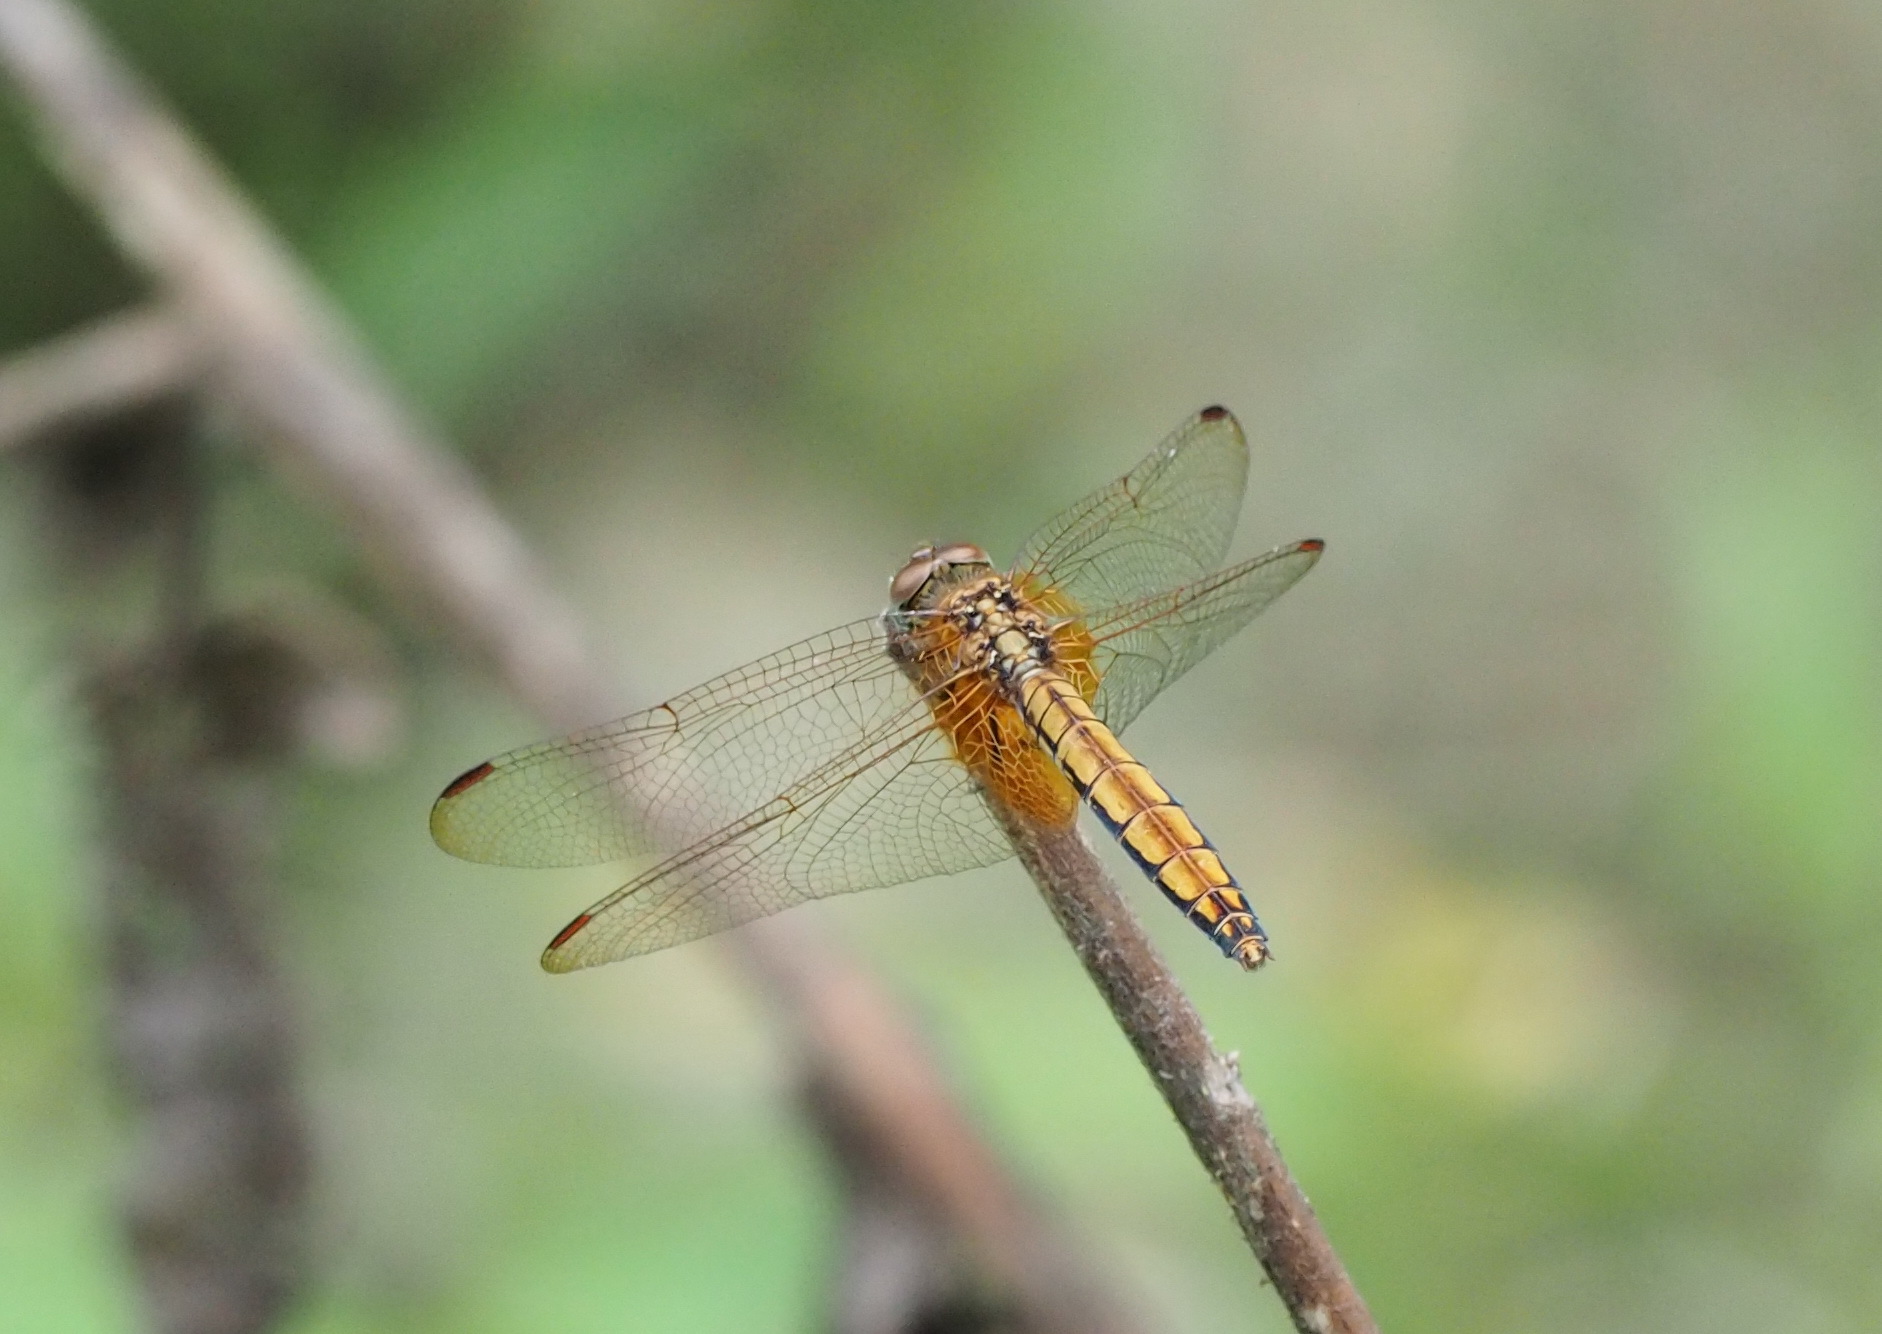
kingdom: Animalia
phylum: Arthropoda
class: Insecta
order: Odonata
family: Libellulidae
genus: Trithemis
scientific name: Trithemis aurora
